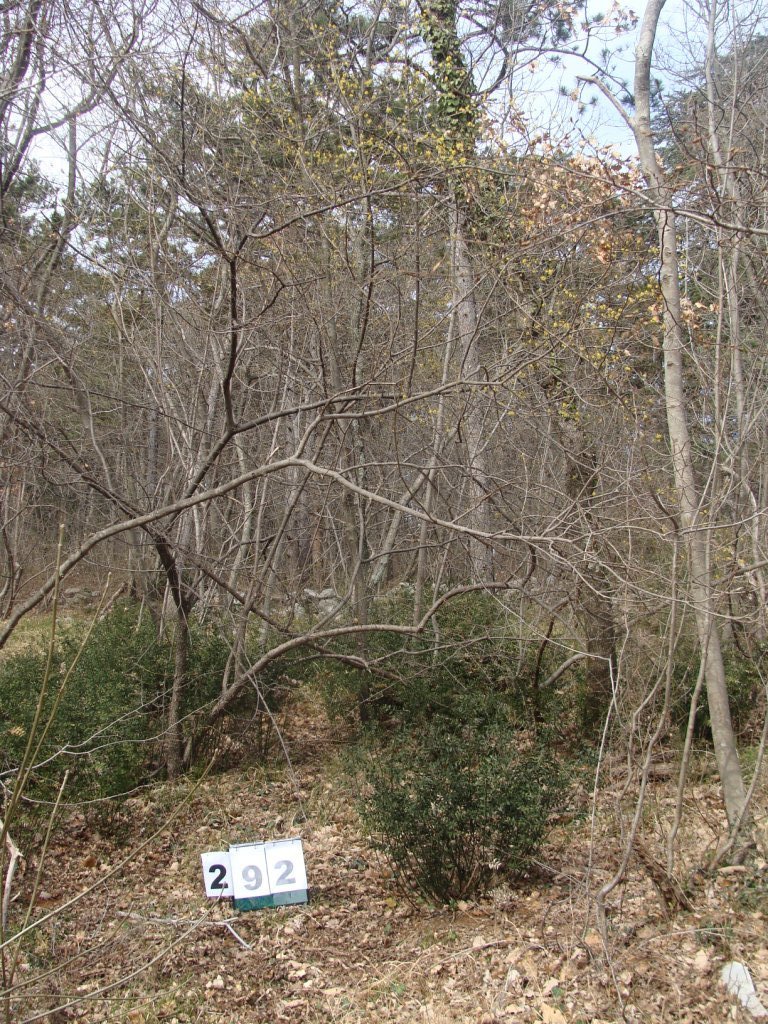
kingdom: Plantae
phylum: Tracheophyta
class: Magnoliopsida
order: Cornales
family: Cornaceae
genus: Cornus
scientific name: Cornus mas
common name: Cornelian-cherry
